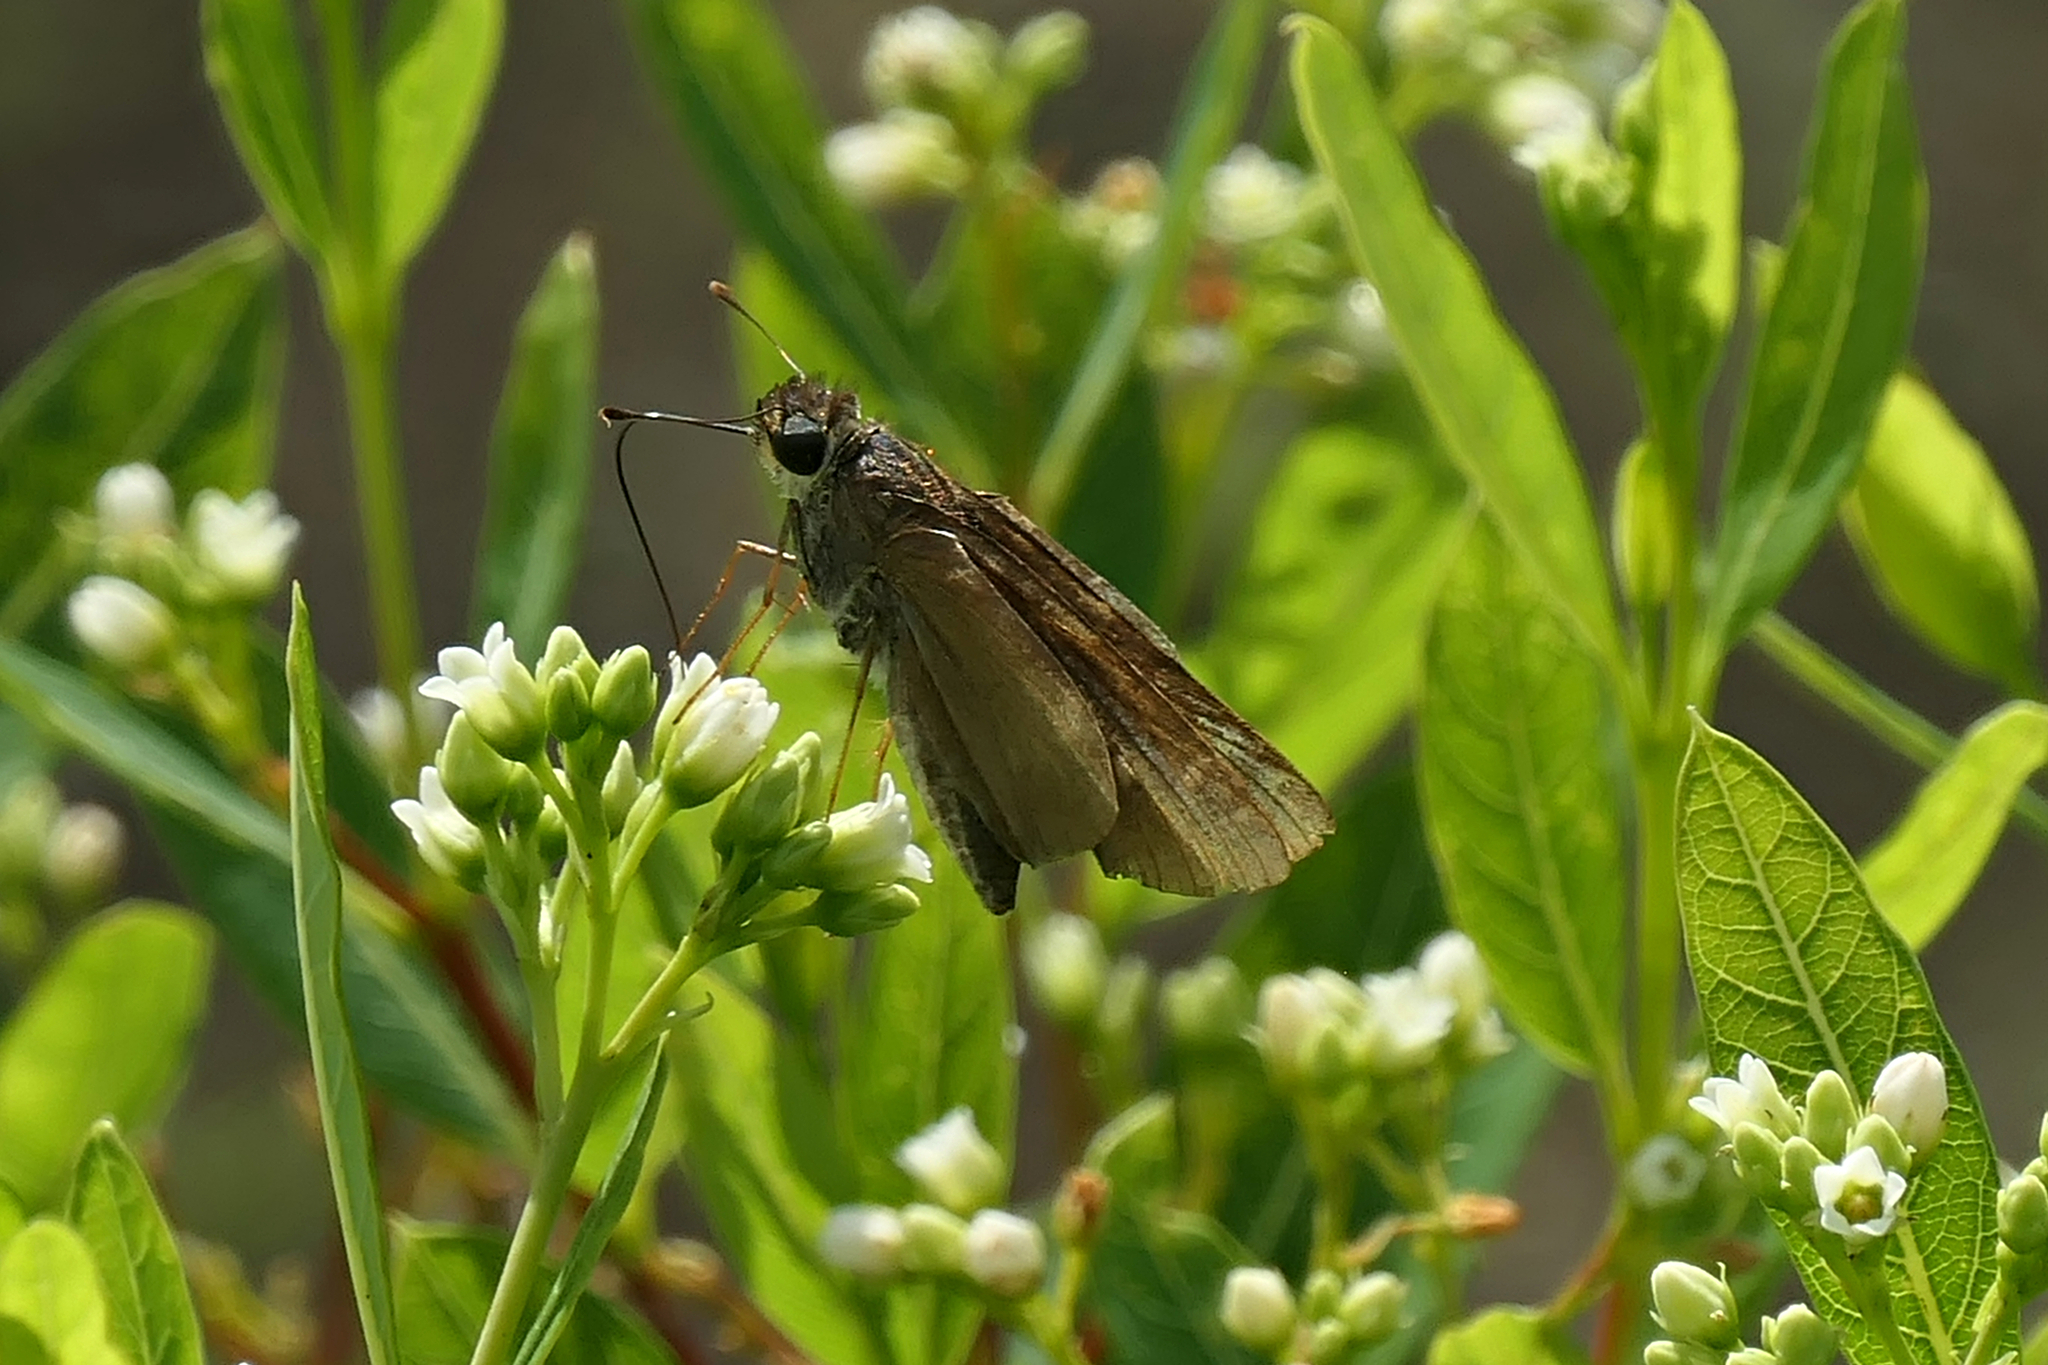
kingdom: Animalia
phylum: Arthropoda
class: Insecta
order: Lepidoptera
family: Hesperiidae
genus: Panoquina
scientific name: Panoquina ocola
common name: Ocola skipper
